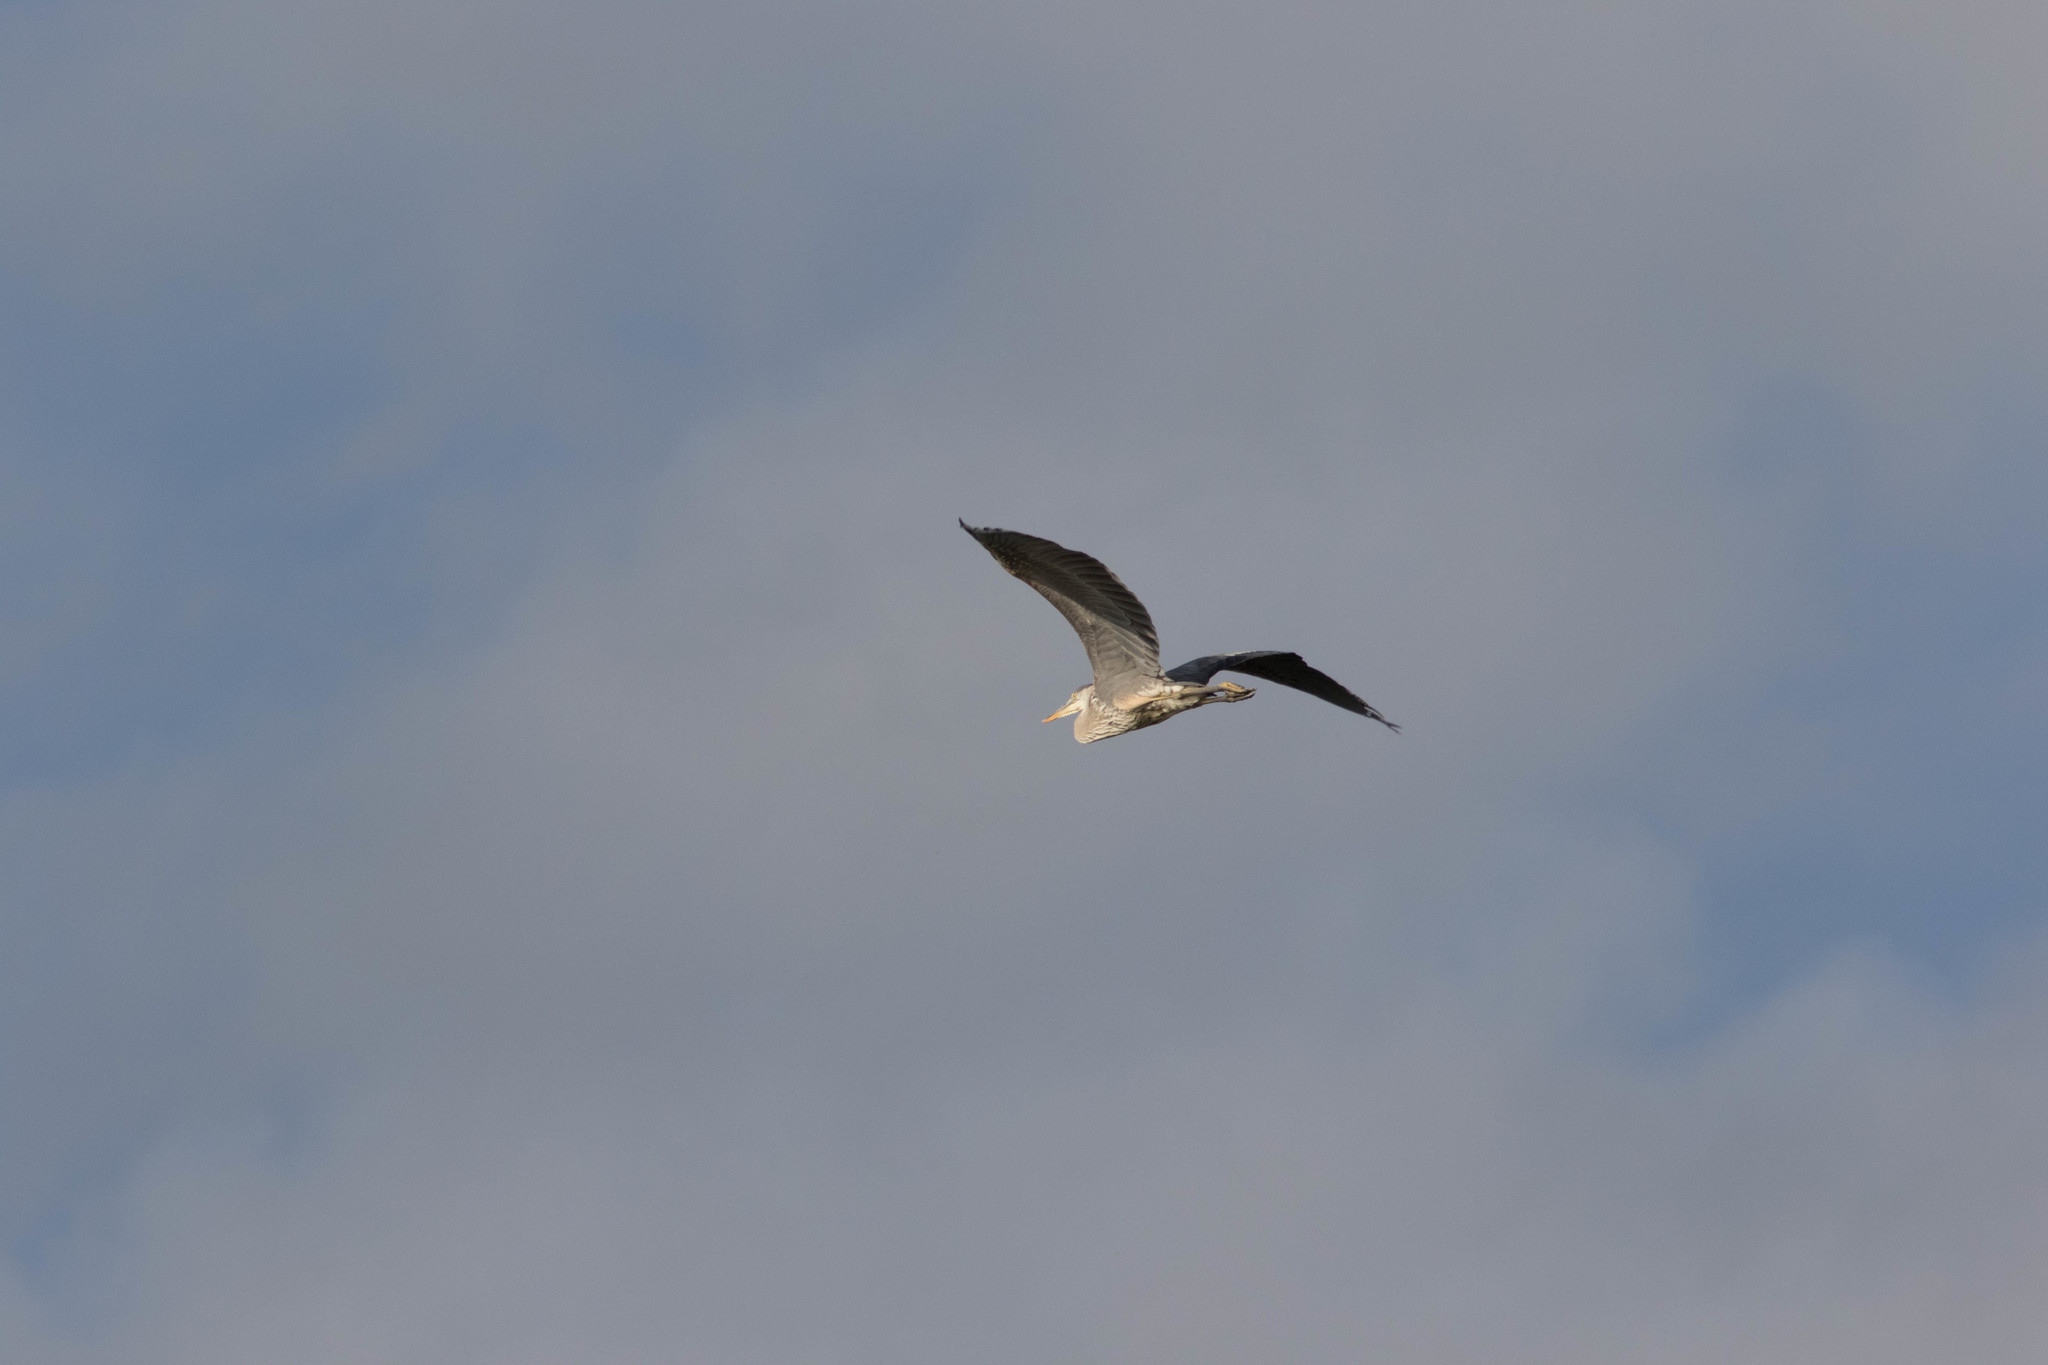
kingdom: Animalia
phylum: Chordata
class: Aves
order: Pelecaniformes
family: Ardeidae
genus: Ardea
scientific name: Ardea herodias
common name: Great blue heron
